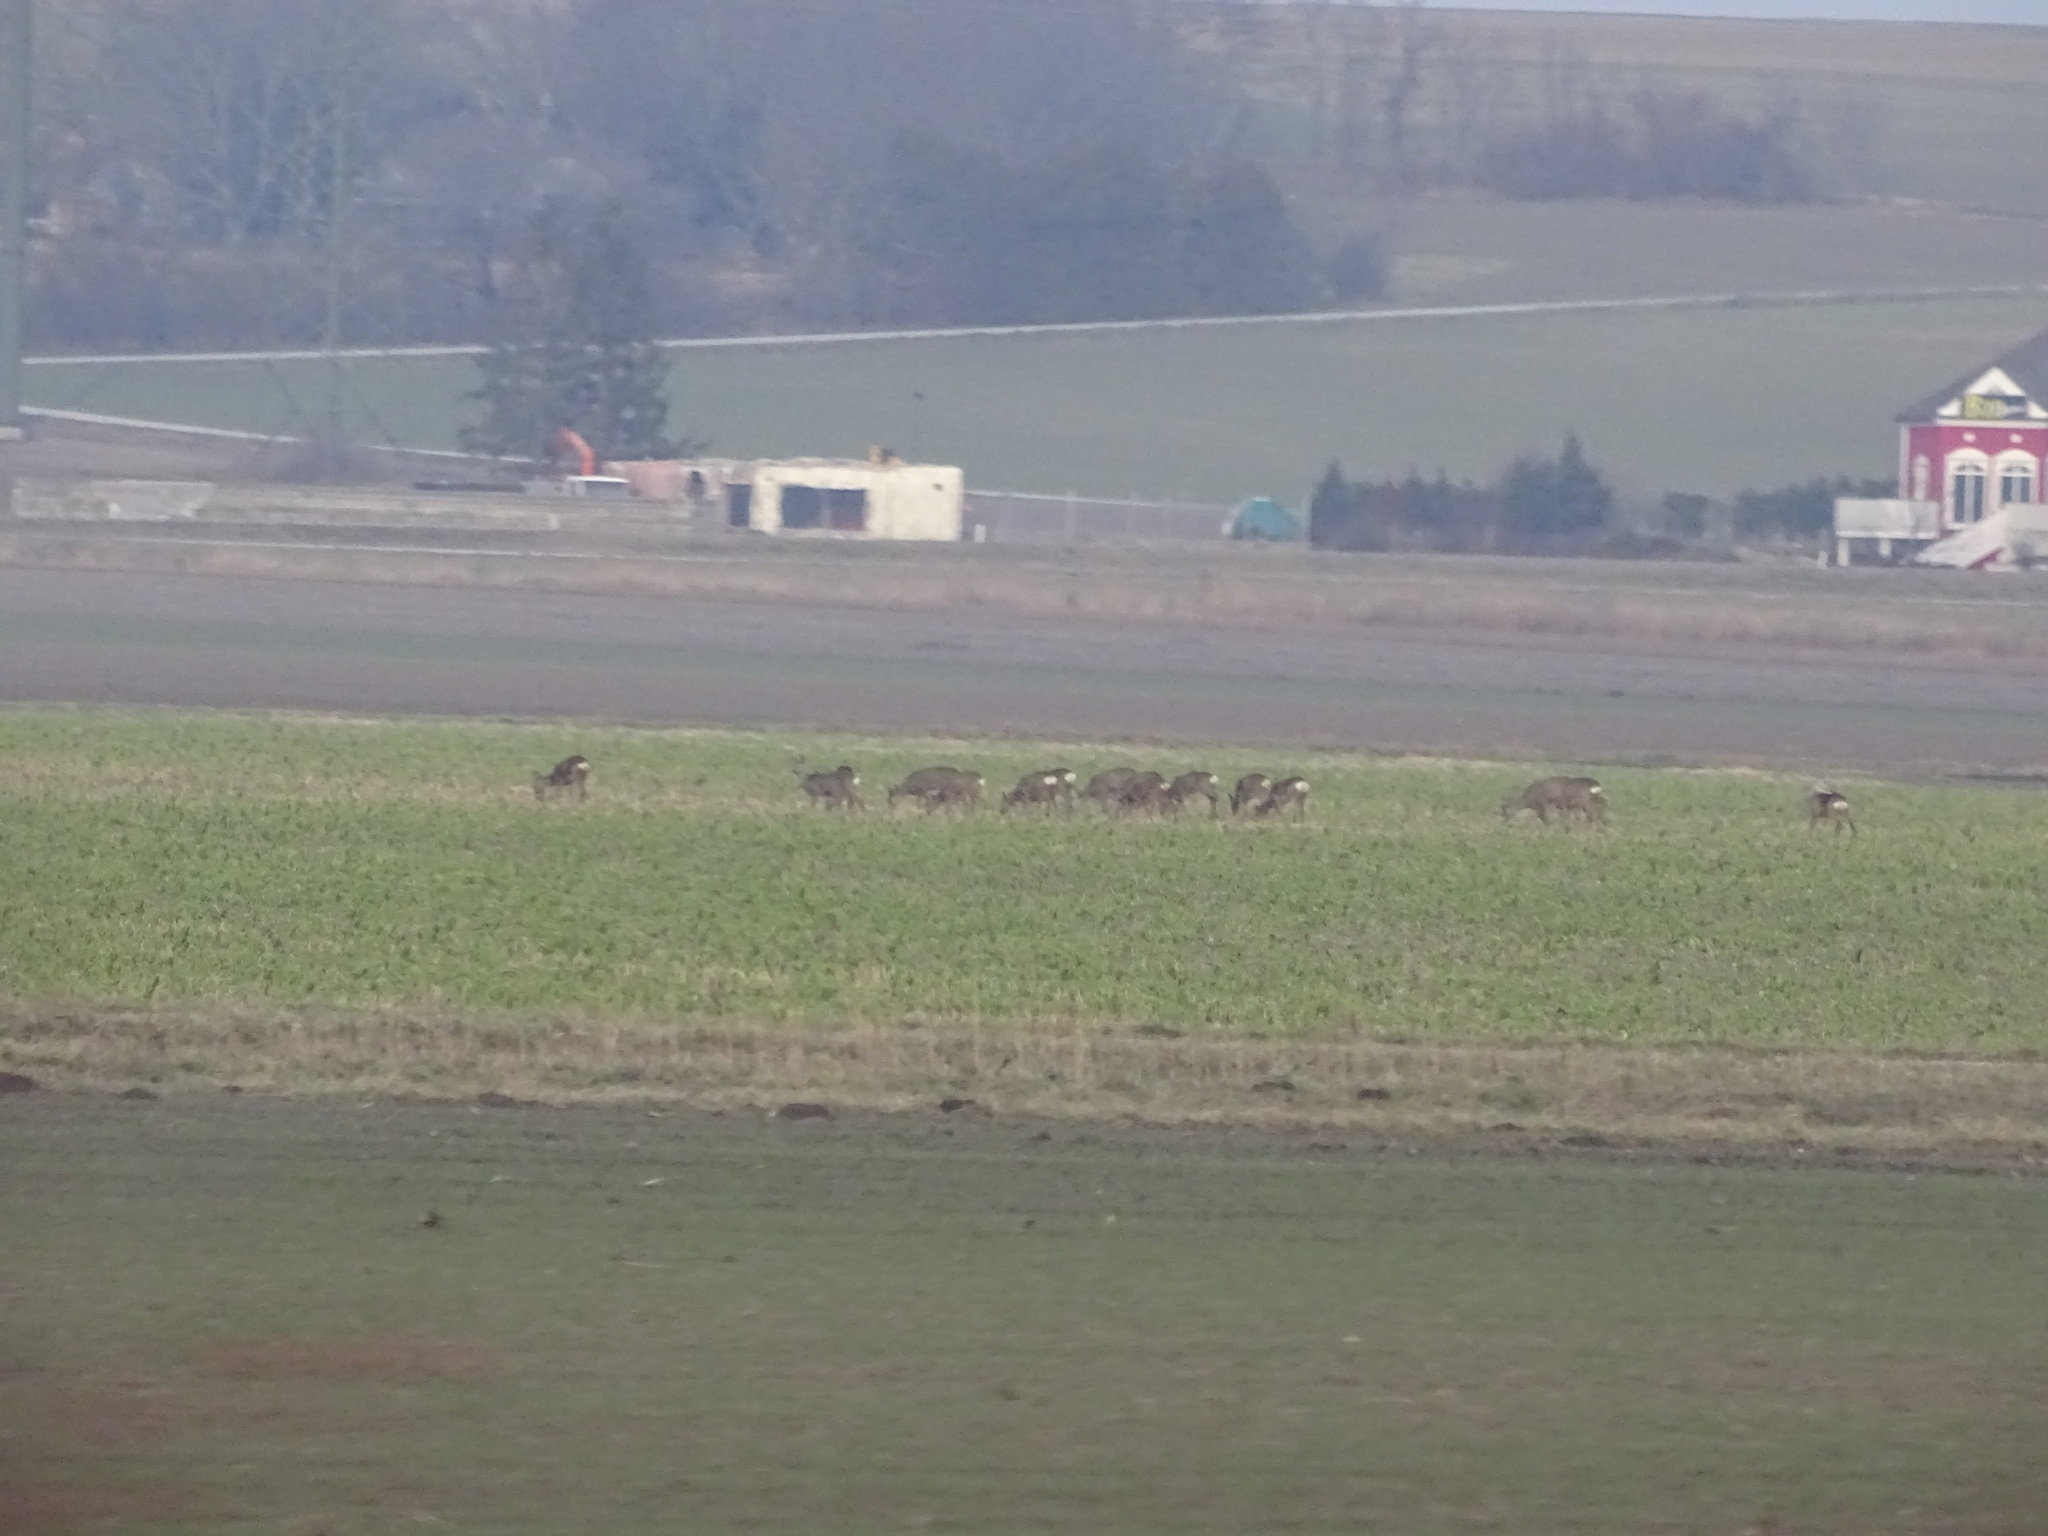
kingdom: Animalia
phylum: Chordata
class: Mammalia
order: Artiodactyla
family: Cervidae
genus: Capreolus
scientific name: Capreolus capreolus
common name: Western roe deer
